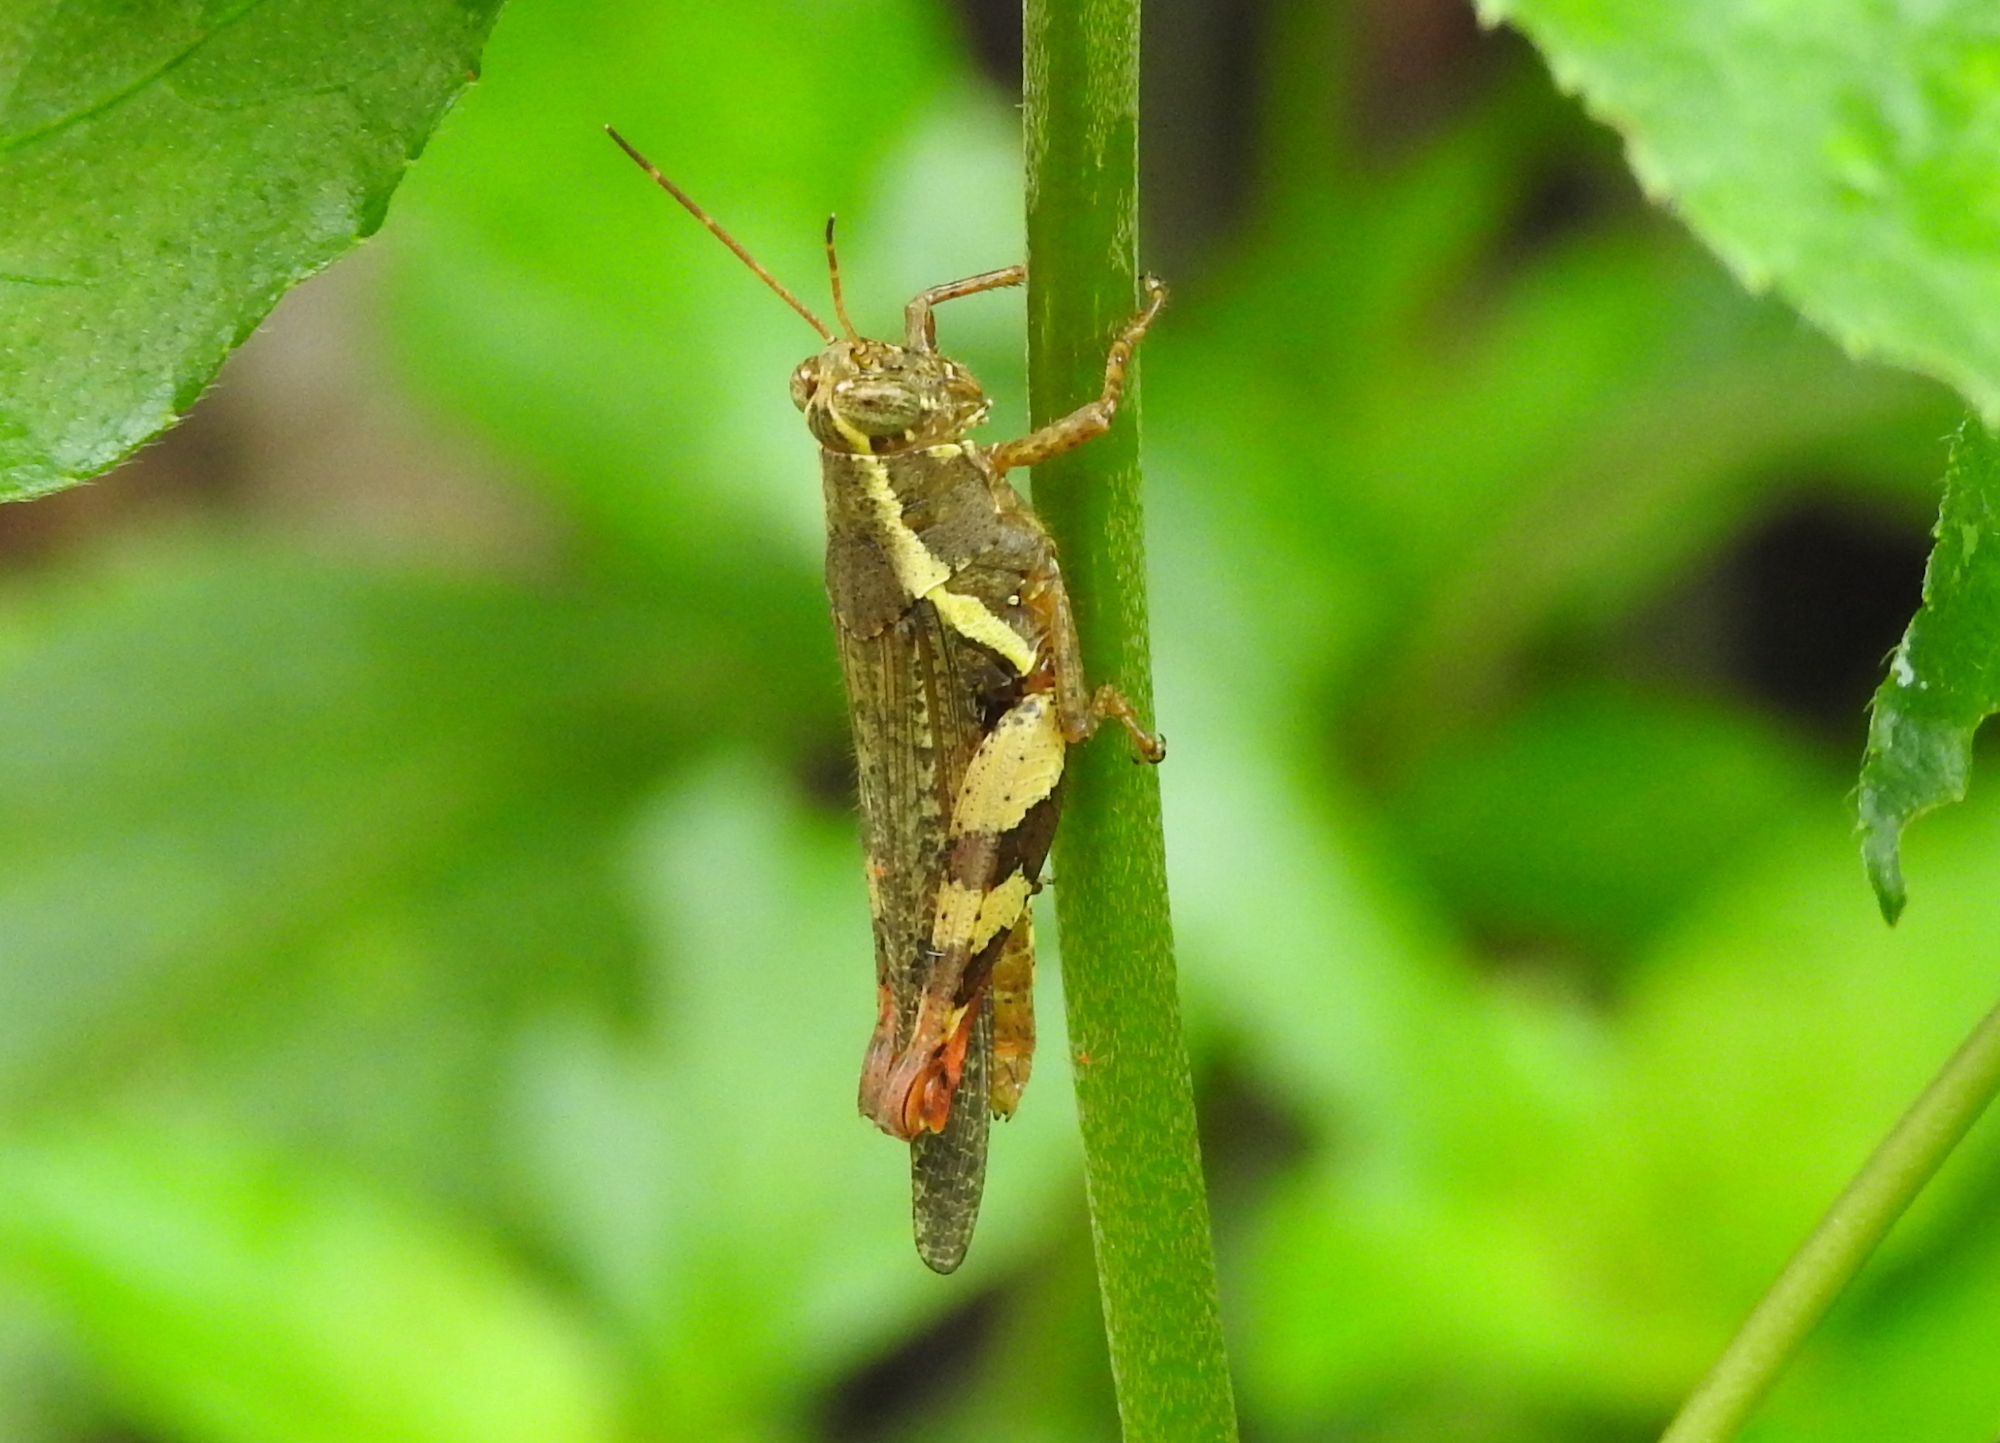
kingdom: Animalia
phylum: Arthropoda
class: Insecta
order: Orthoptera
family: Acrididae
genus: Xenocatantops
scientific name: Xenocatantops humile
